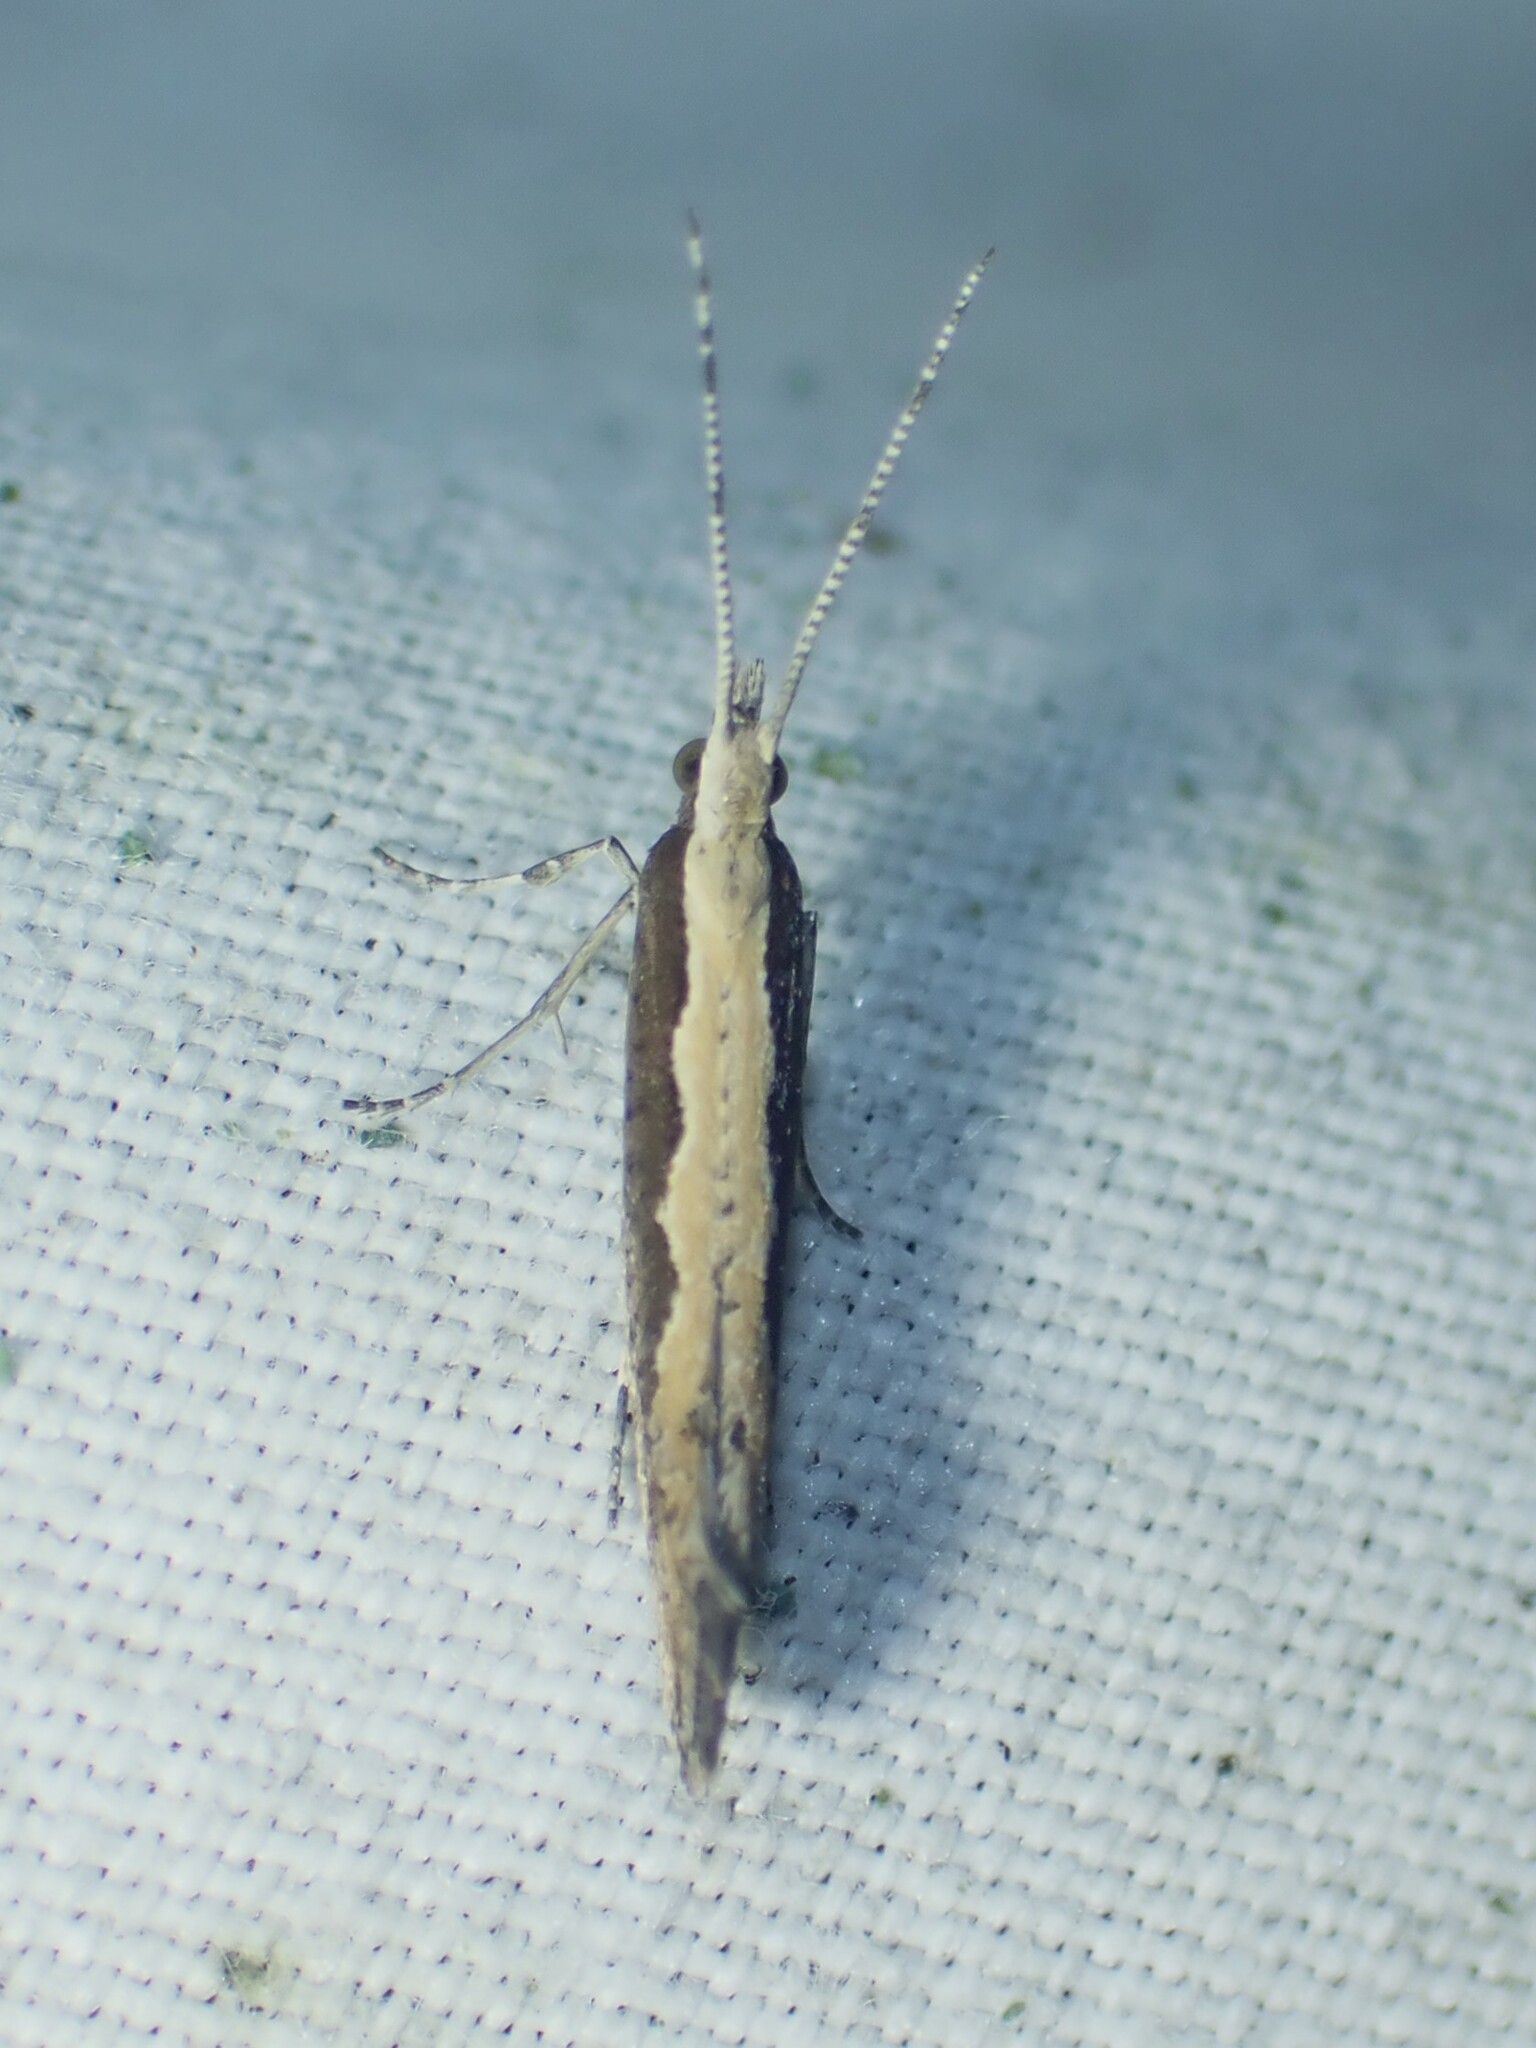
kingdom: Animalia
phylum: Arthropoda
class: Insecta
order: Lepidoptera
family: Plutellidae
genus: Plutella
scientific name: Plutella xylostella
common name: Diamond-back moth
